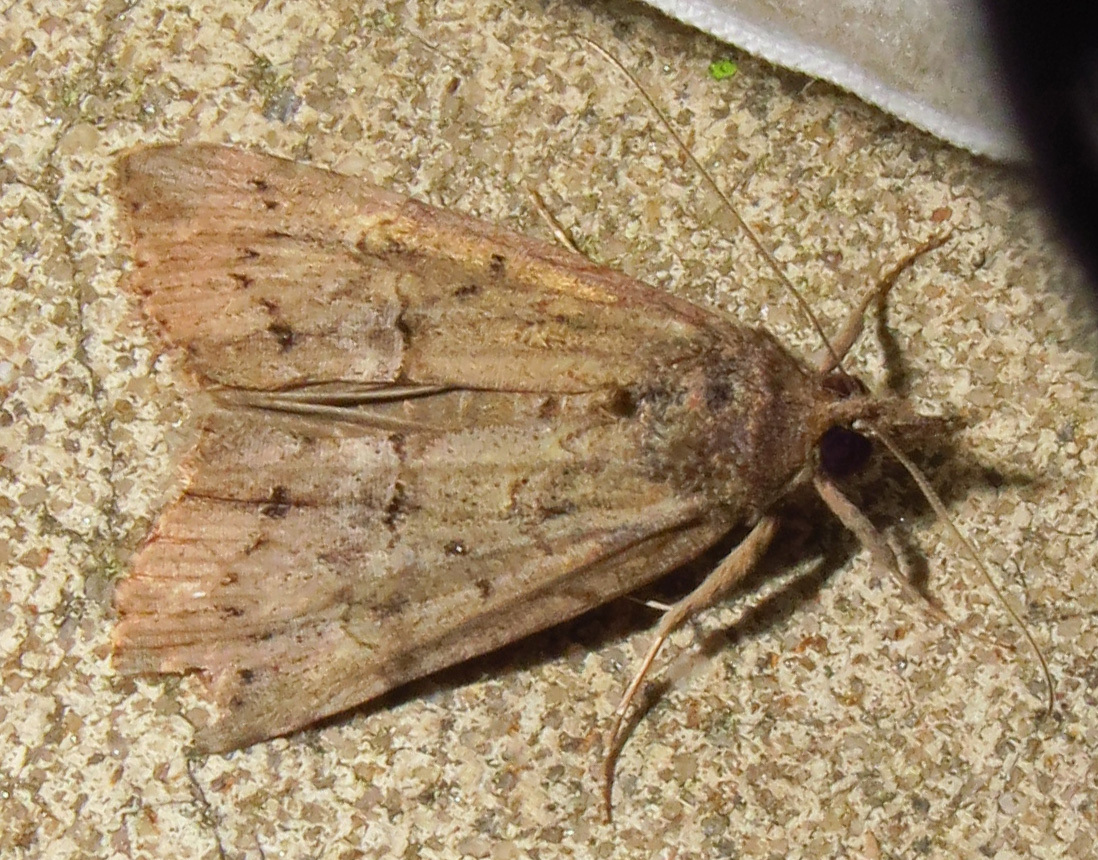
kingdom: Animalia
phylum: Arthropoda
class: Insecta
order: Lepidoptera
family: Erebidae
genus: Hypena
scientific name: Hypena scabra
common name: Green cloverworm
